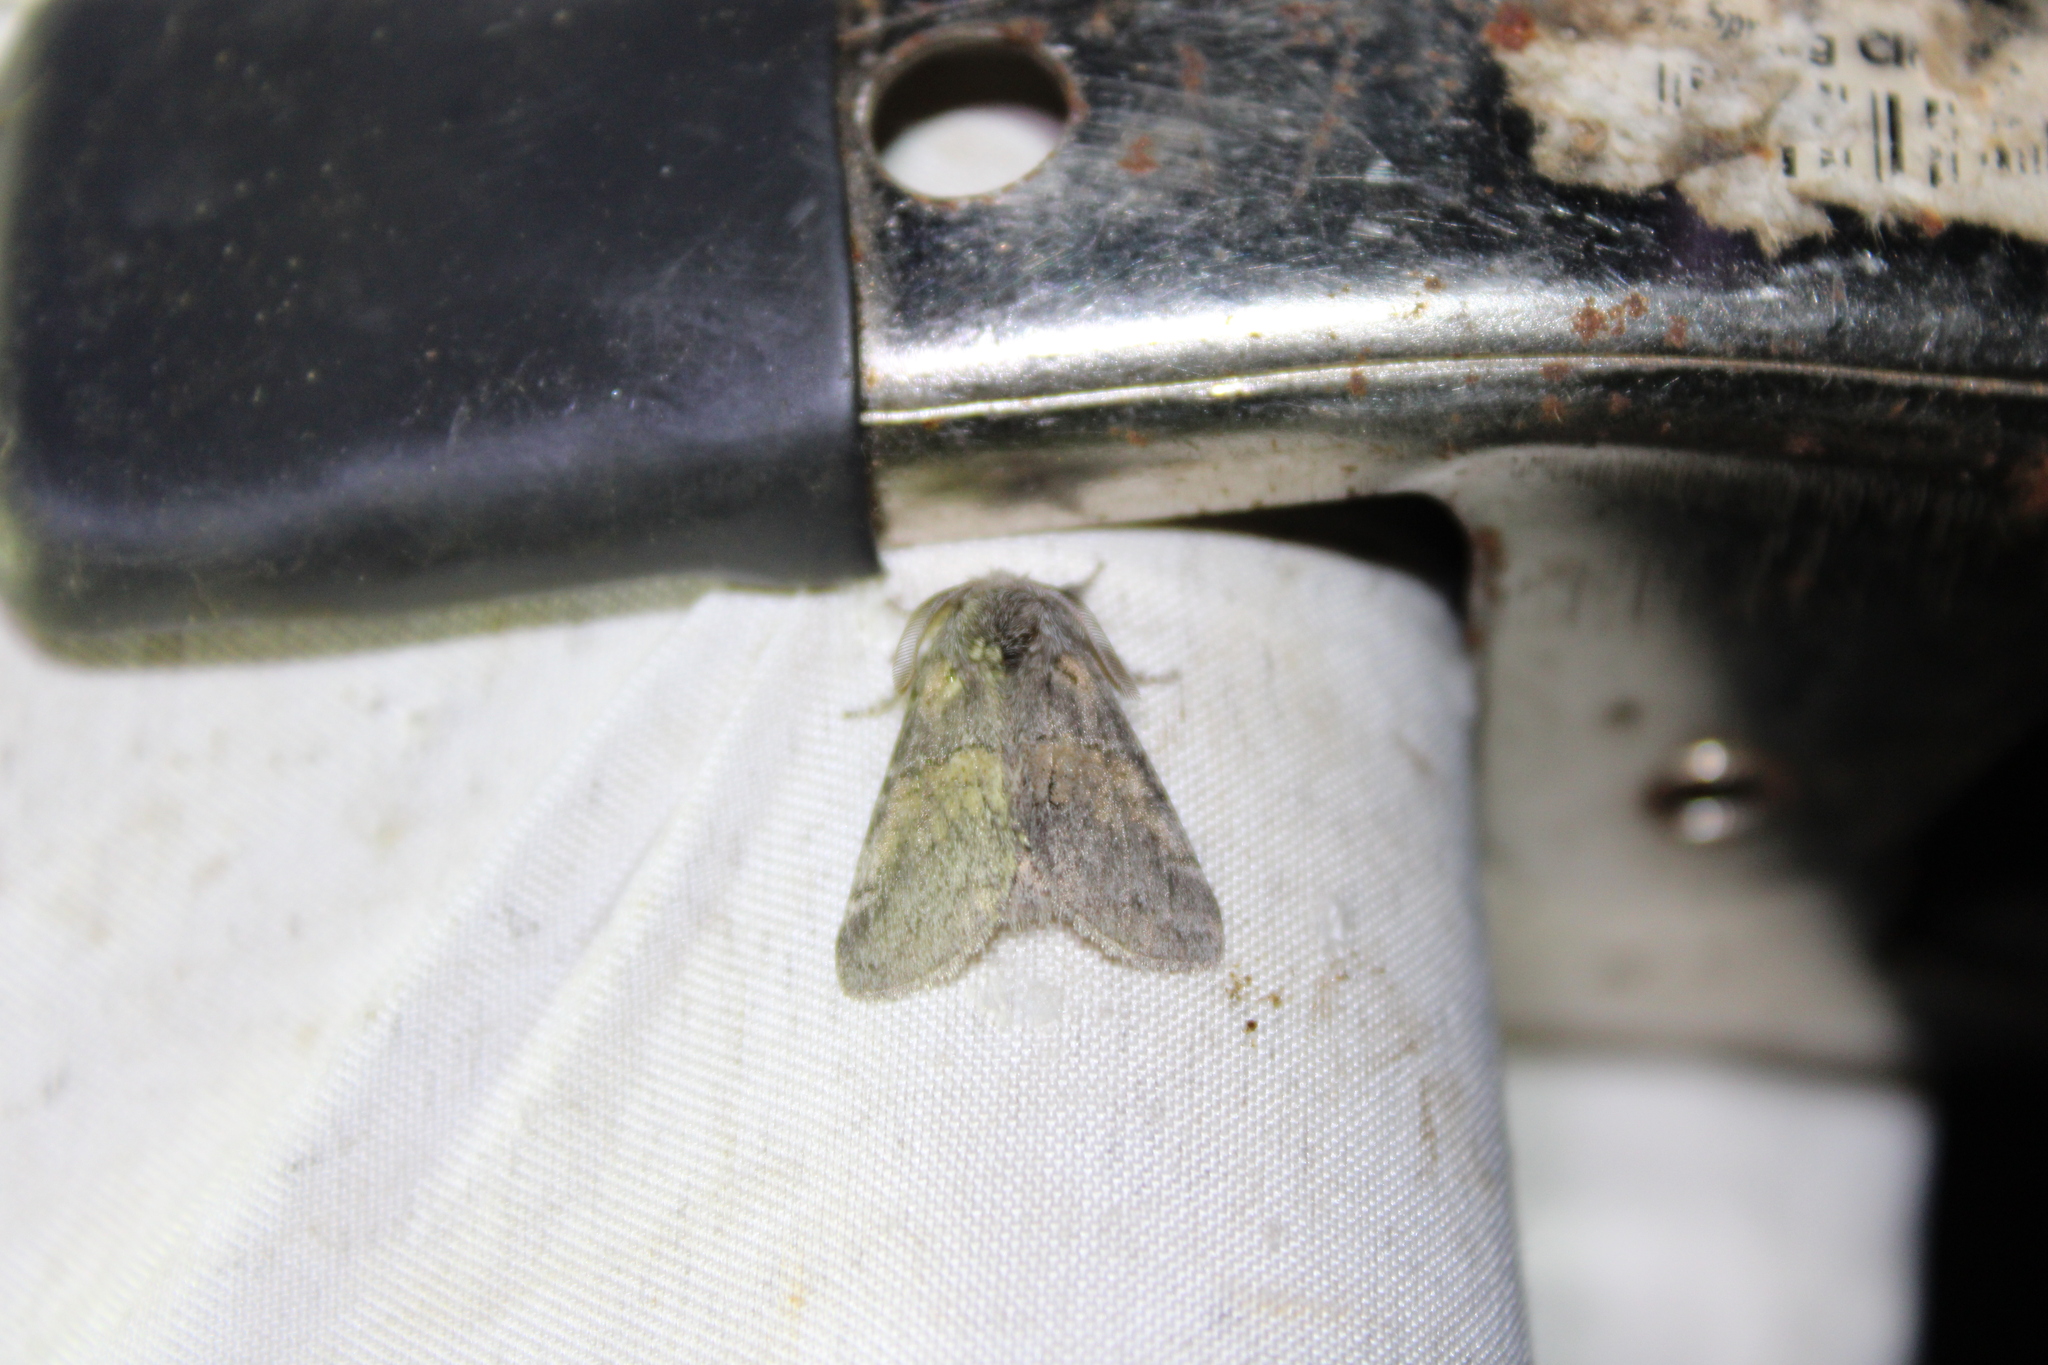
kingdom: Animalia
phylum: Arthropoda
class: Insecta
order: Lepidoptera
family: Notodontidae
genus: Gluphisia
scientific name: Gluphisia septentrionis
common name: Common gluphisia
